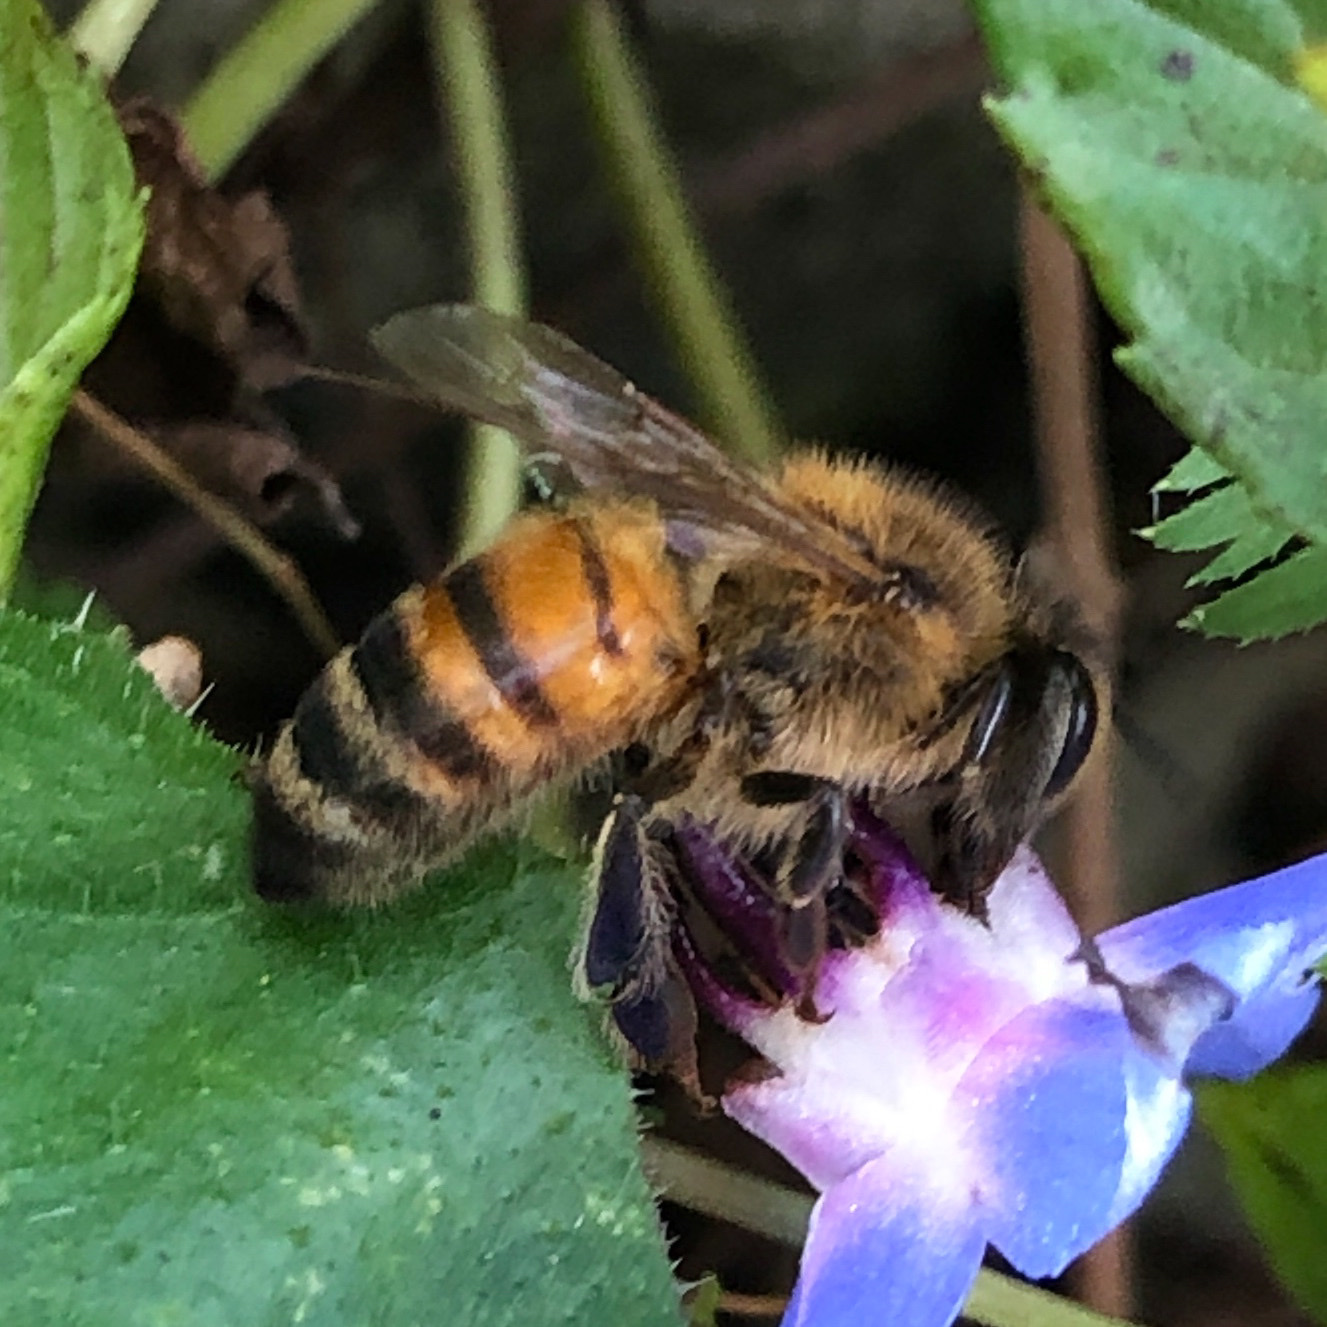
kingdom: Animalia
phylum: Arthropoda
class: Insecta
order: Hymenoptera
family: Apidae
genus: Apis
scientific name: Apis mellifera
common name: Honey bee
